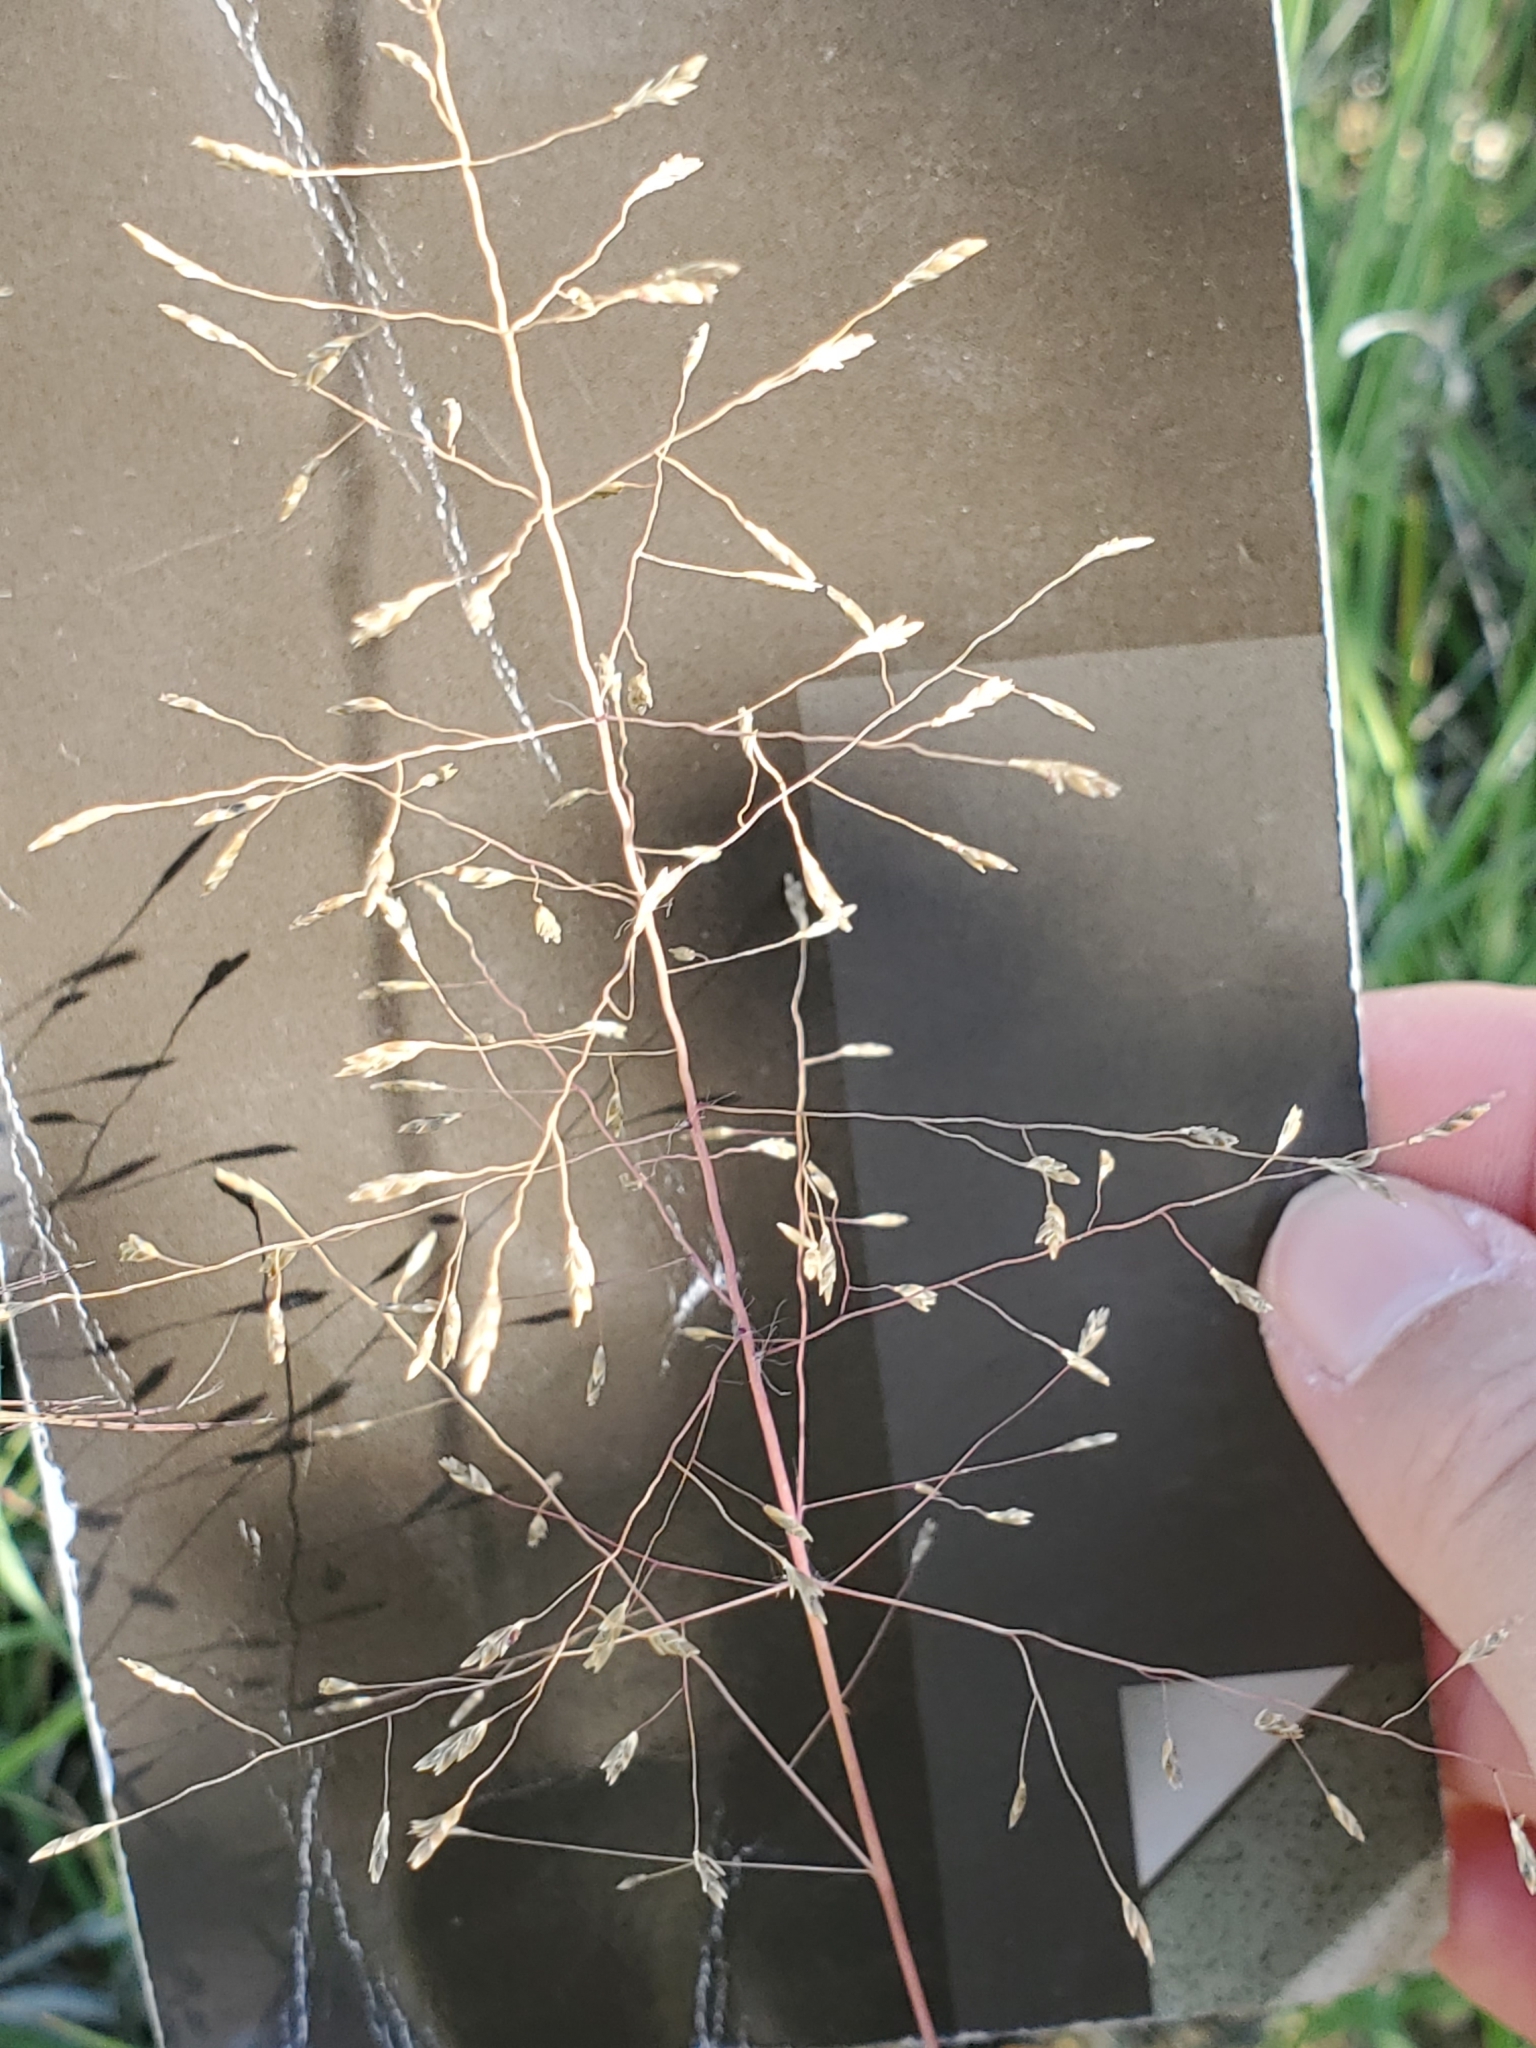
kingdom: Plantae
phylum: Tracheophyta
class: Liliopsida
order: Poales
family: Poaceae
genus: Eragrostis
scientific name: Eragrostis intermedia
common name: Plains love grass
